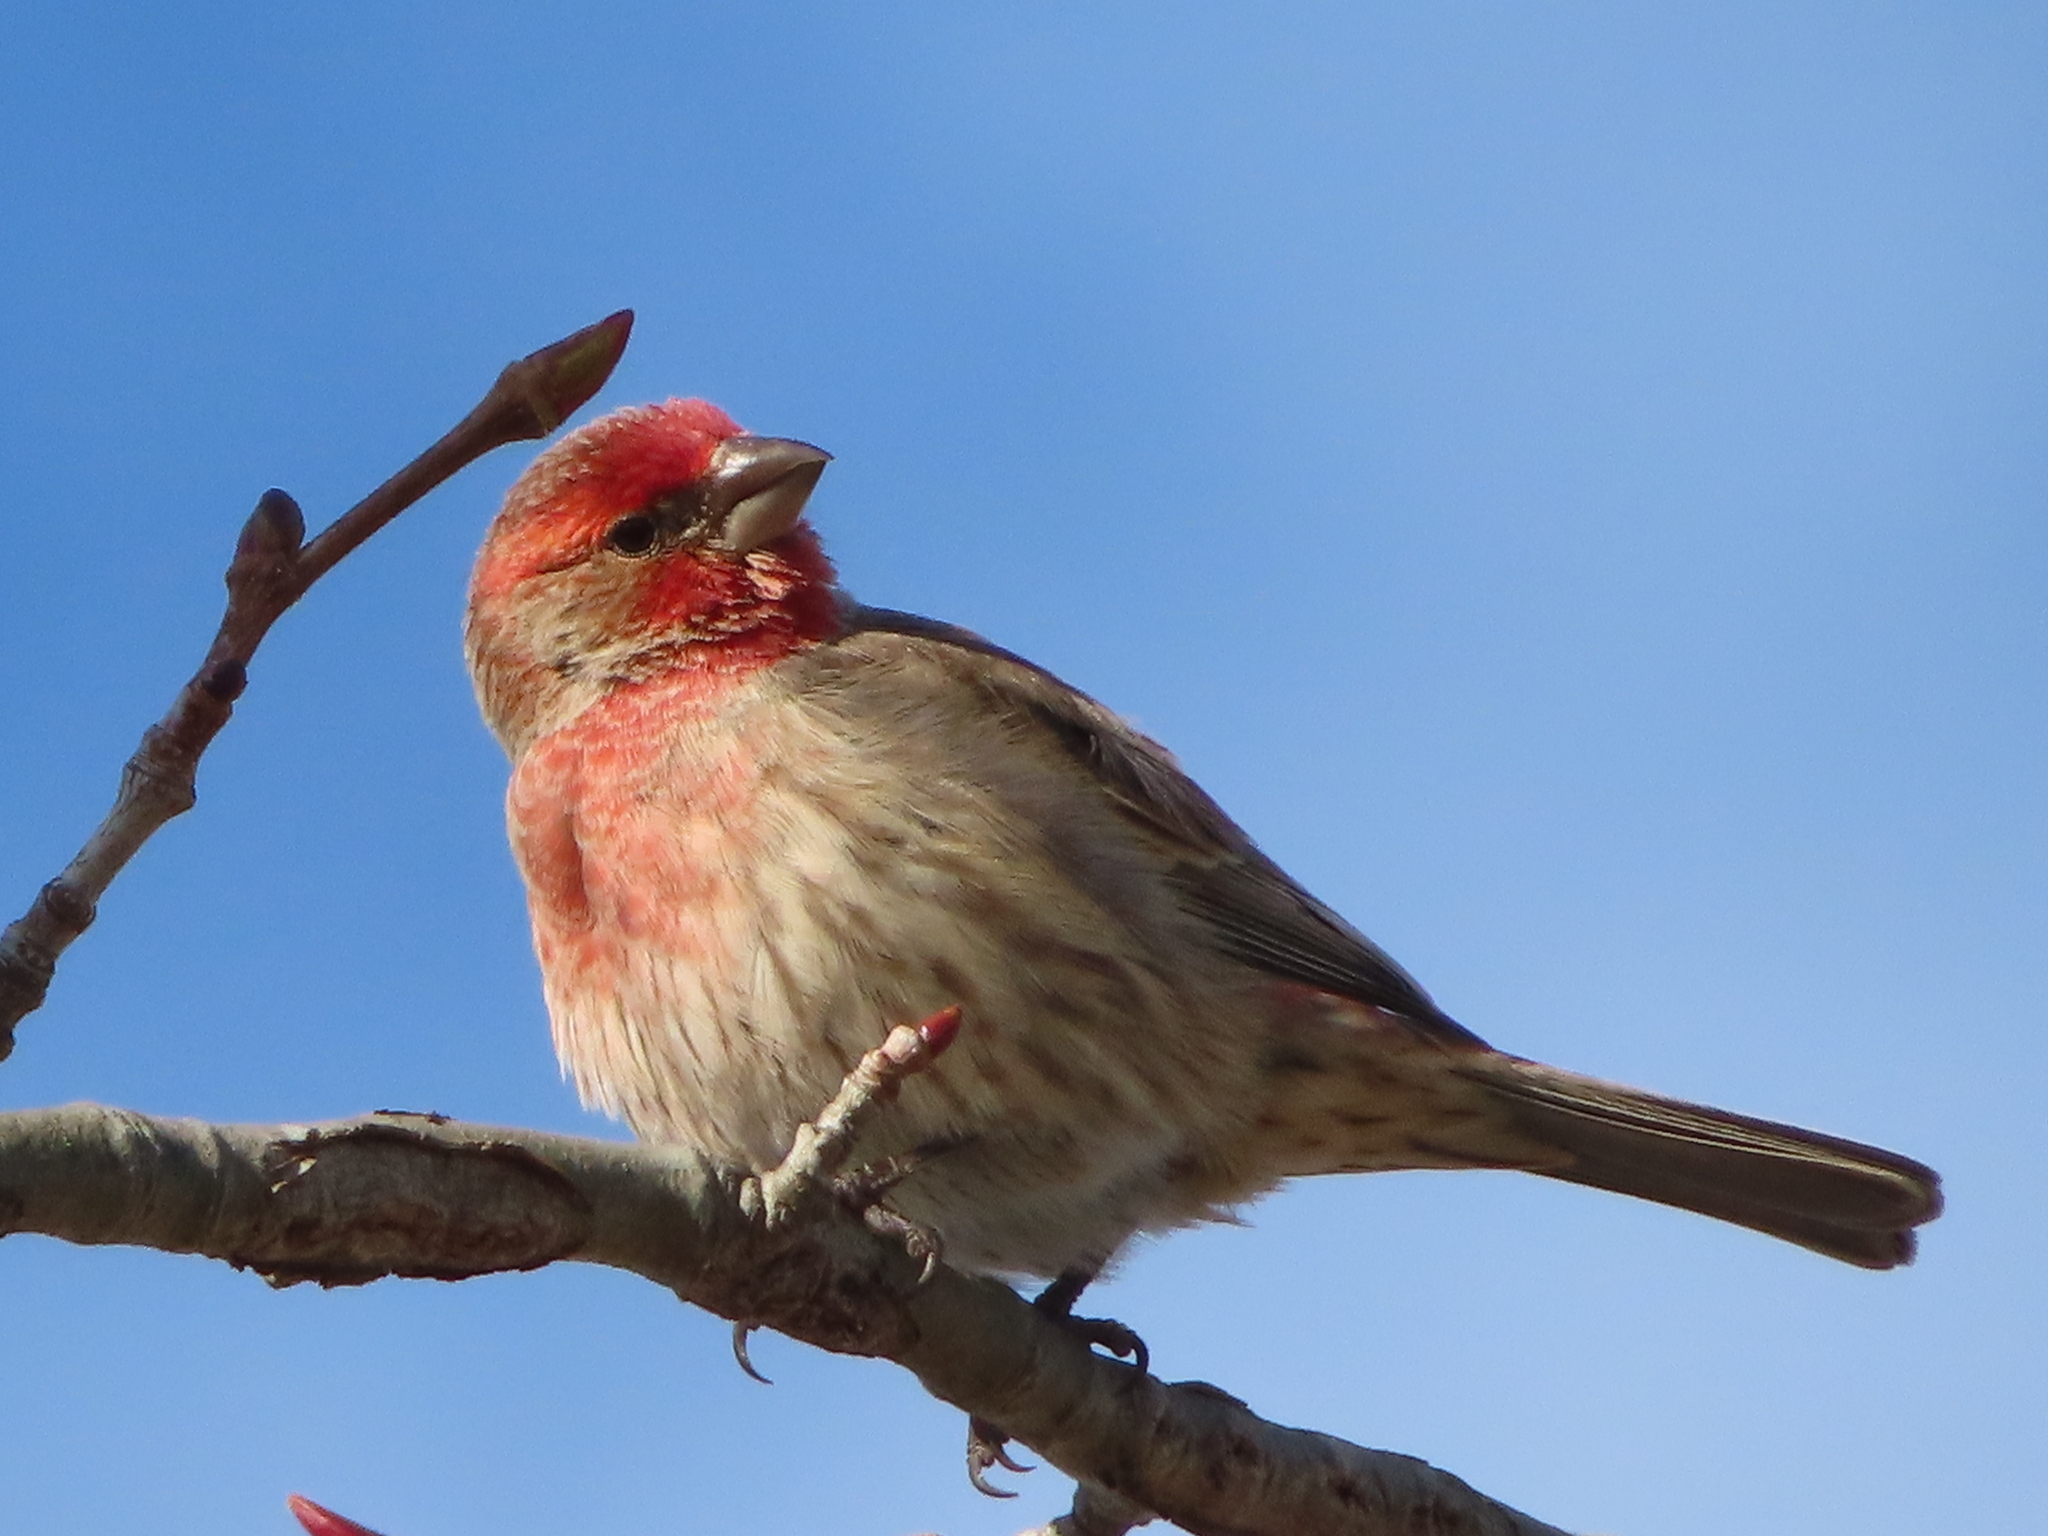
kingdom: Animalia
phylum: Chordata
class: Aves
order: Passeriformes
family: Fringillidae
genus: Haemorhous
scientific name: Haemorhous mexicanus
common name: House finch
